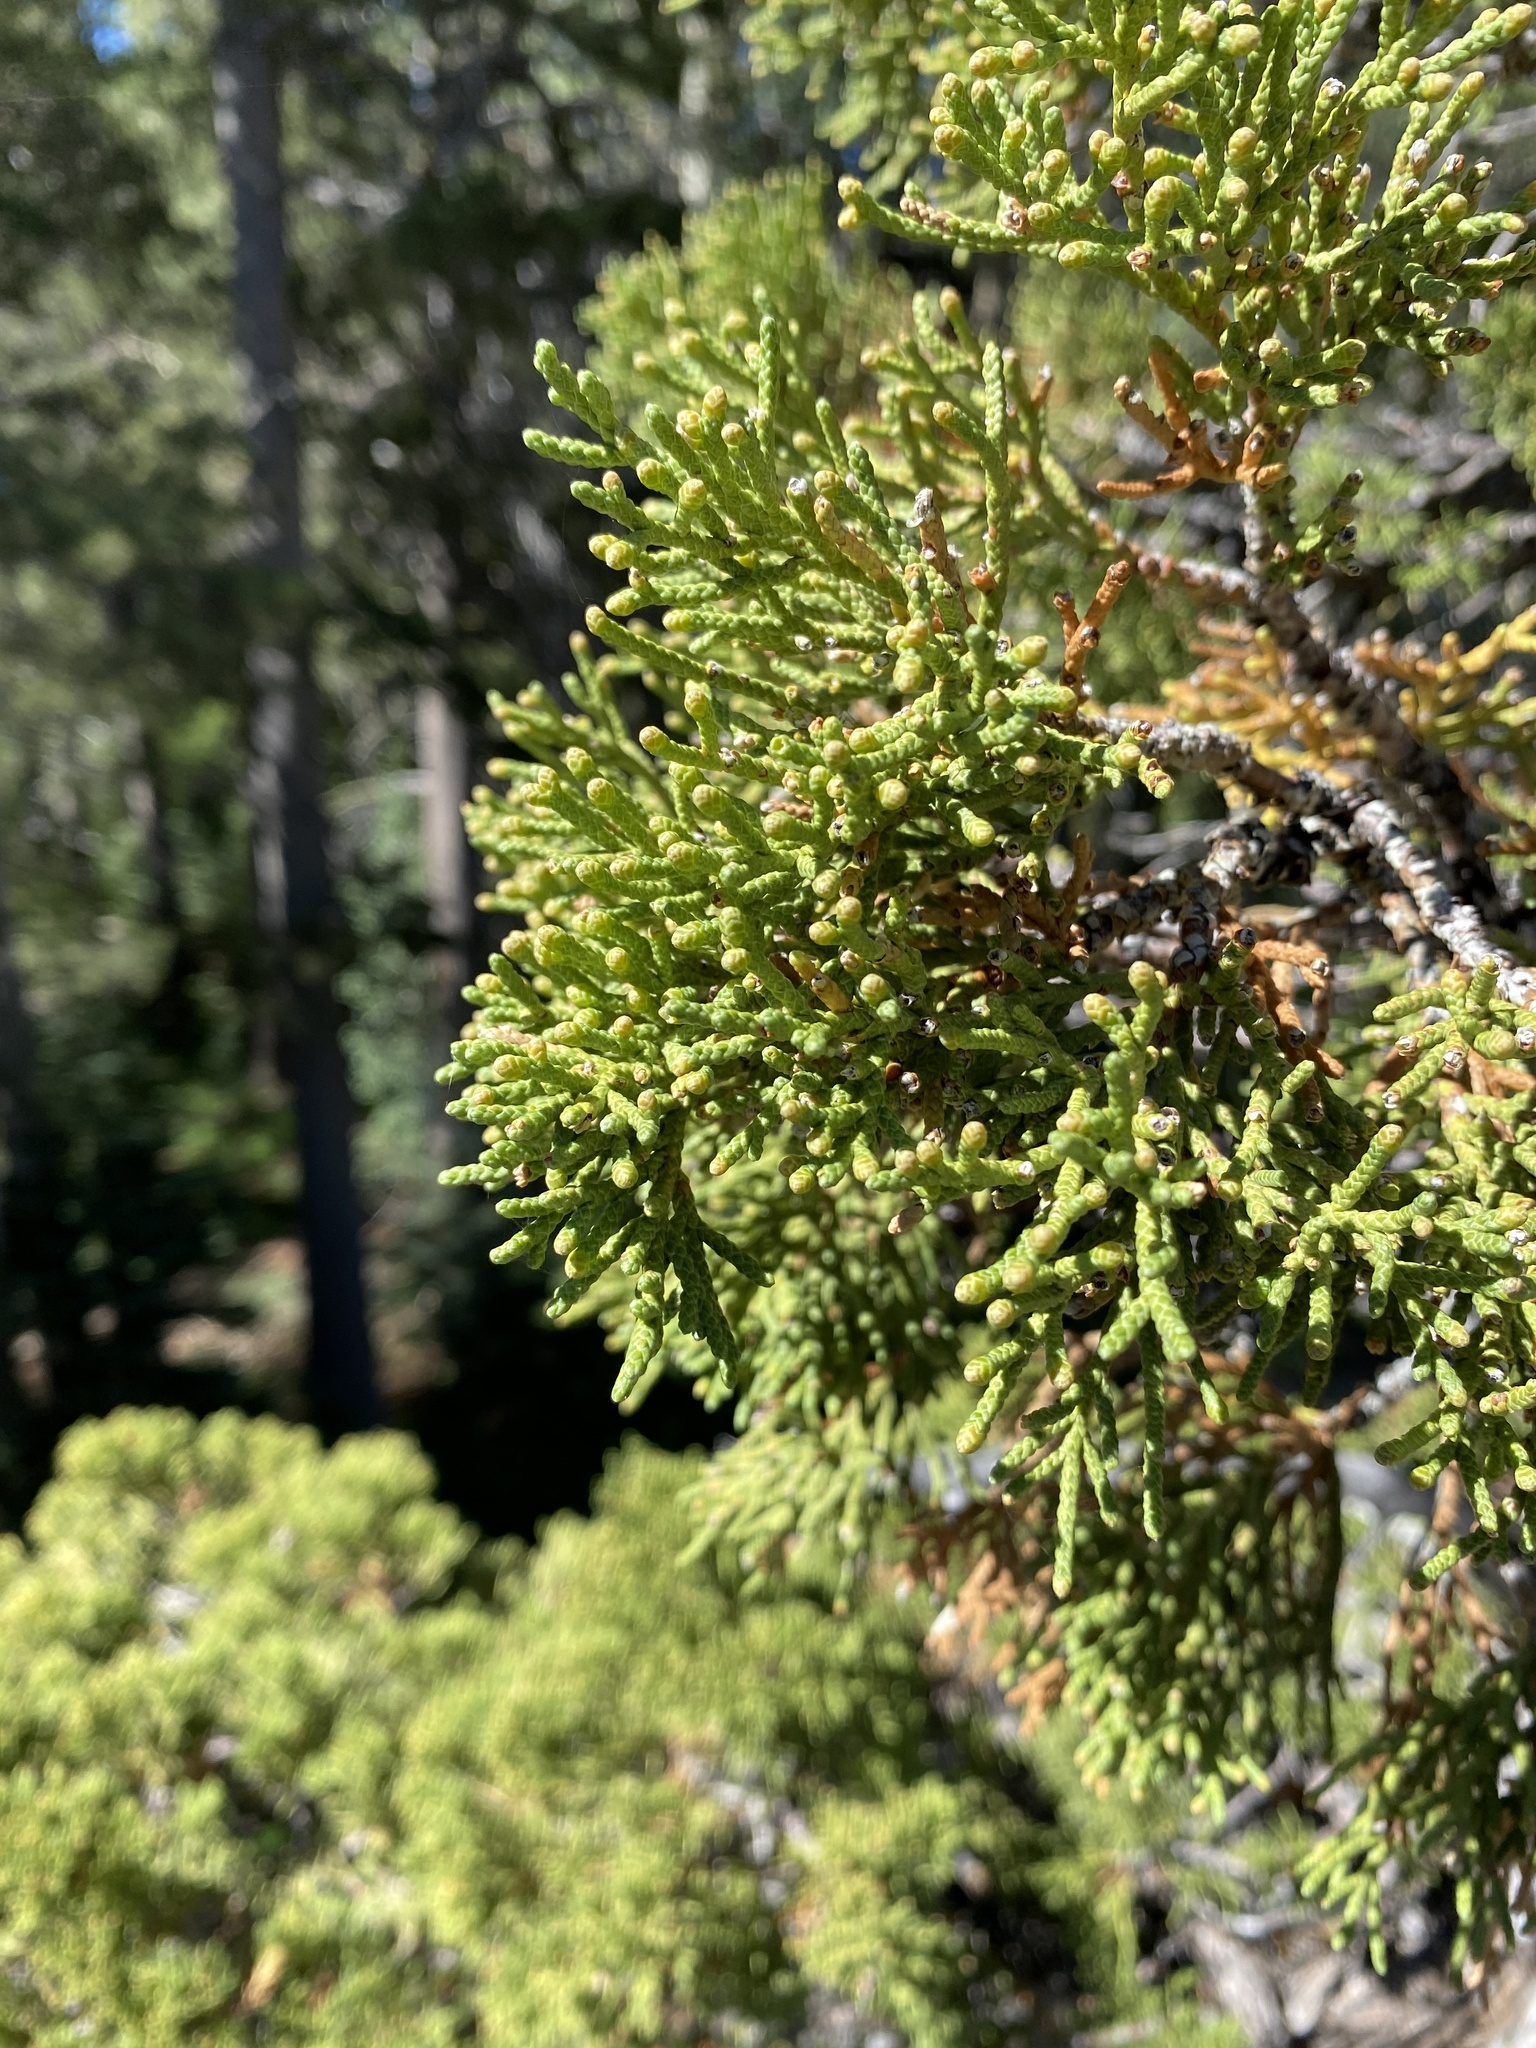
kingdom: Plantae
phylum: Tracheophyta
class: Pinopsida
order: Pinales
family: Cupressaceae
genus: Juniperus
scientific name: Juniperus occidentalis
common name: Western juniper
